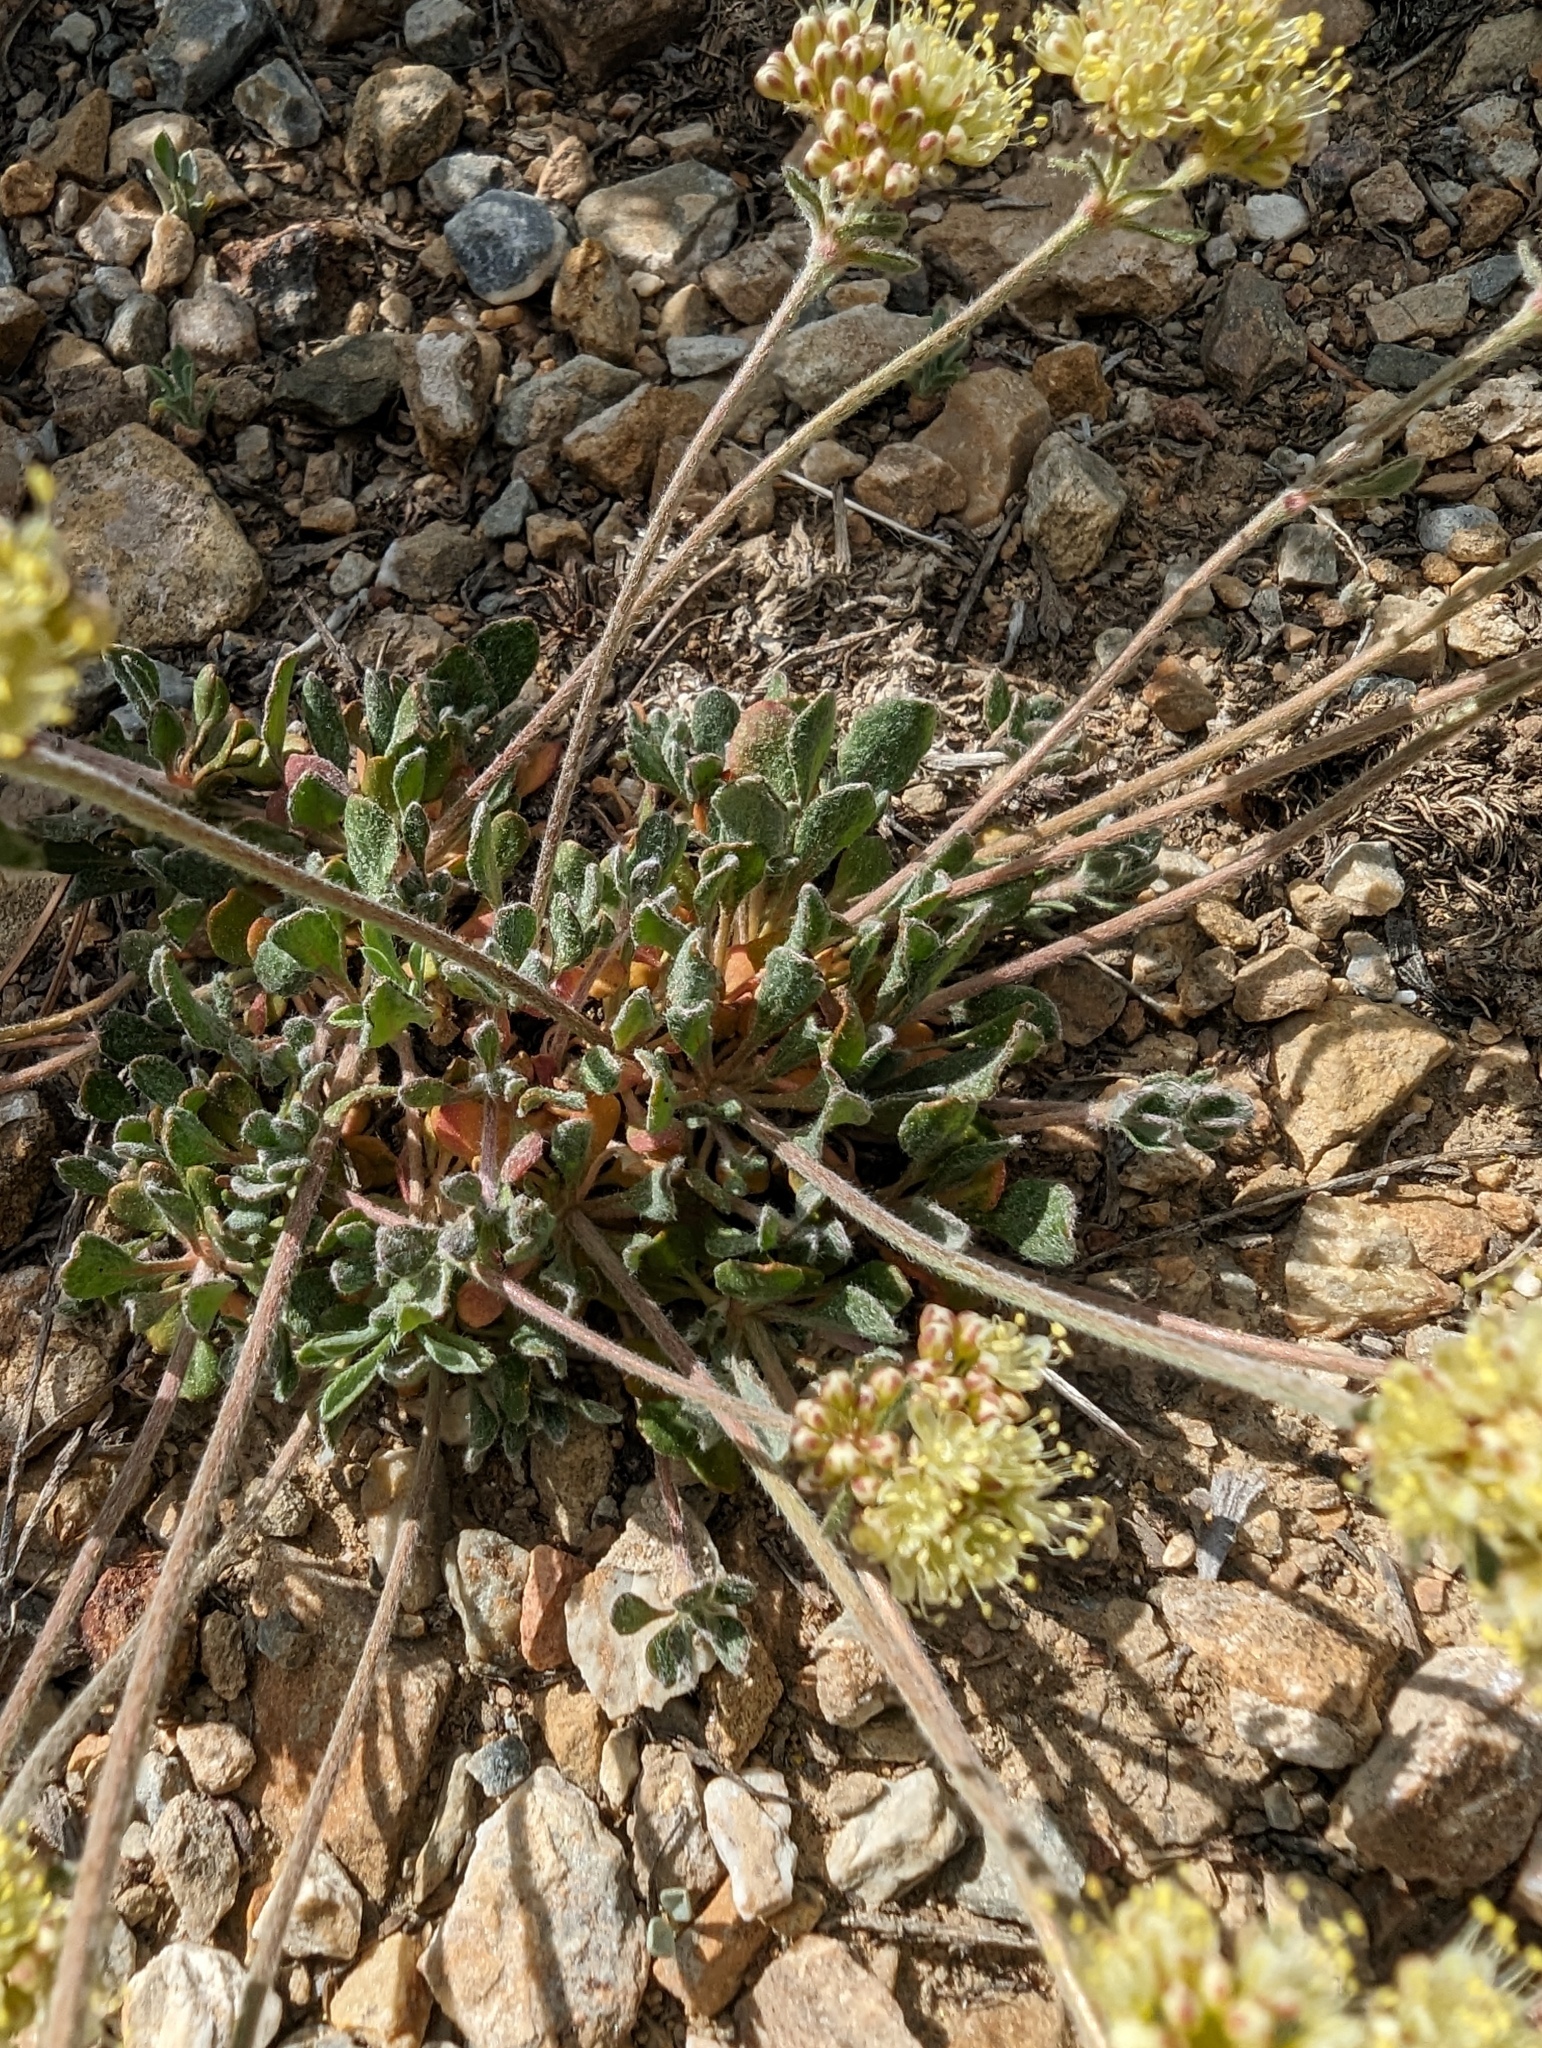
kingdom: Plantae
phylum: Tracheophyta
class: Magnoliopsida
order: Caryophyllales
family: Polygonaceae
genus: Eriogonum
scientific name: Eriogonum umbellatum
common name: Sulfur-buckwheat
